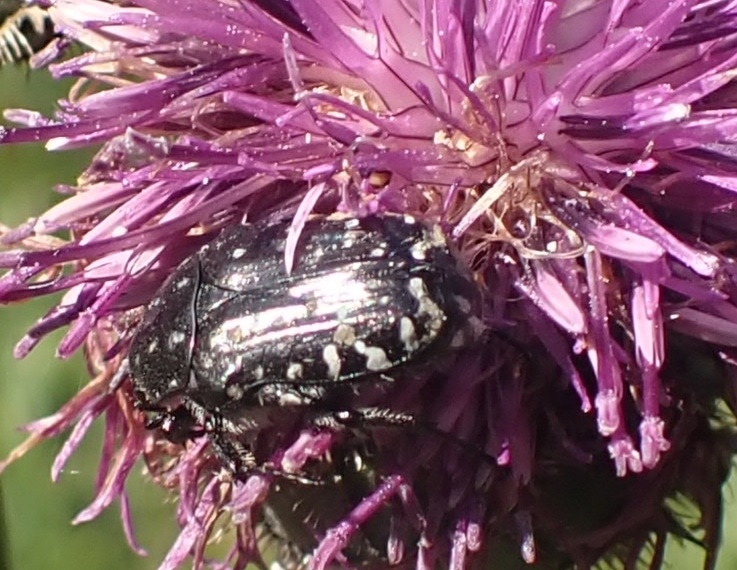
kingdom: Animalia
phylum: Arthropoda
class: Insecta
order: Coleoptera
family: Scarabaeidae
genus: Oxythyrea
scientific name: Oxythyrea funesta
